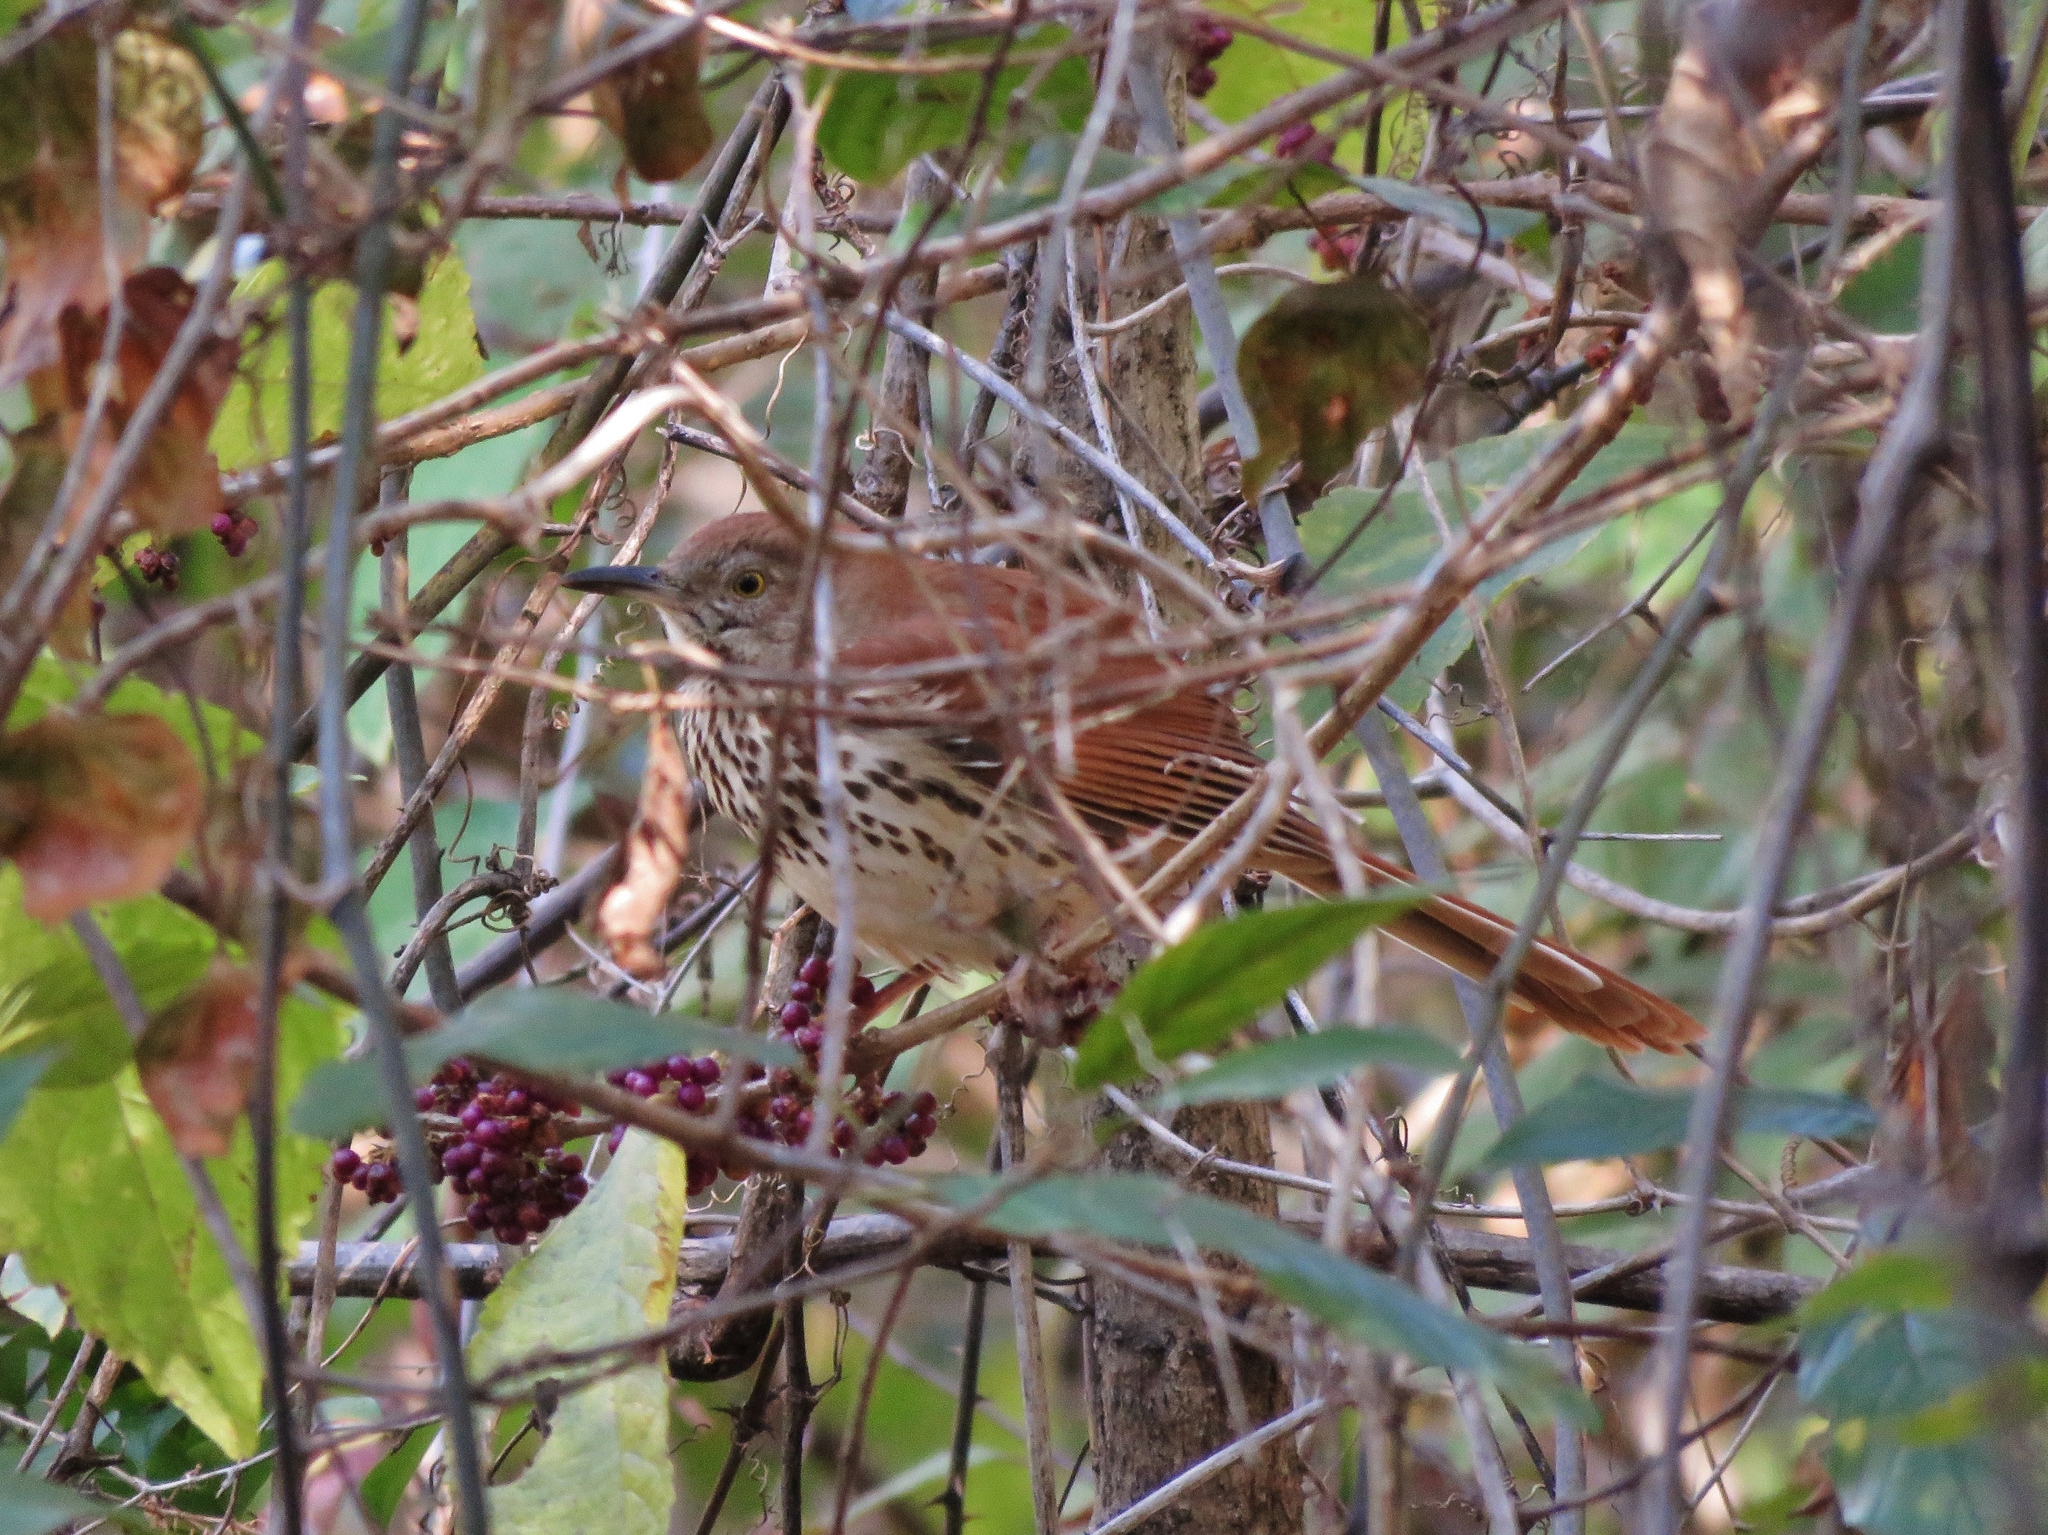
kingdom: Animalia
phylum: Chordata
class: Aves
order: Passeriformes
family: Mimidae
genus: Toxostoma
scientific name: Toxostoma rufum
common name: Brown thrasher
